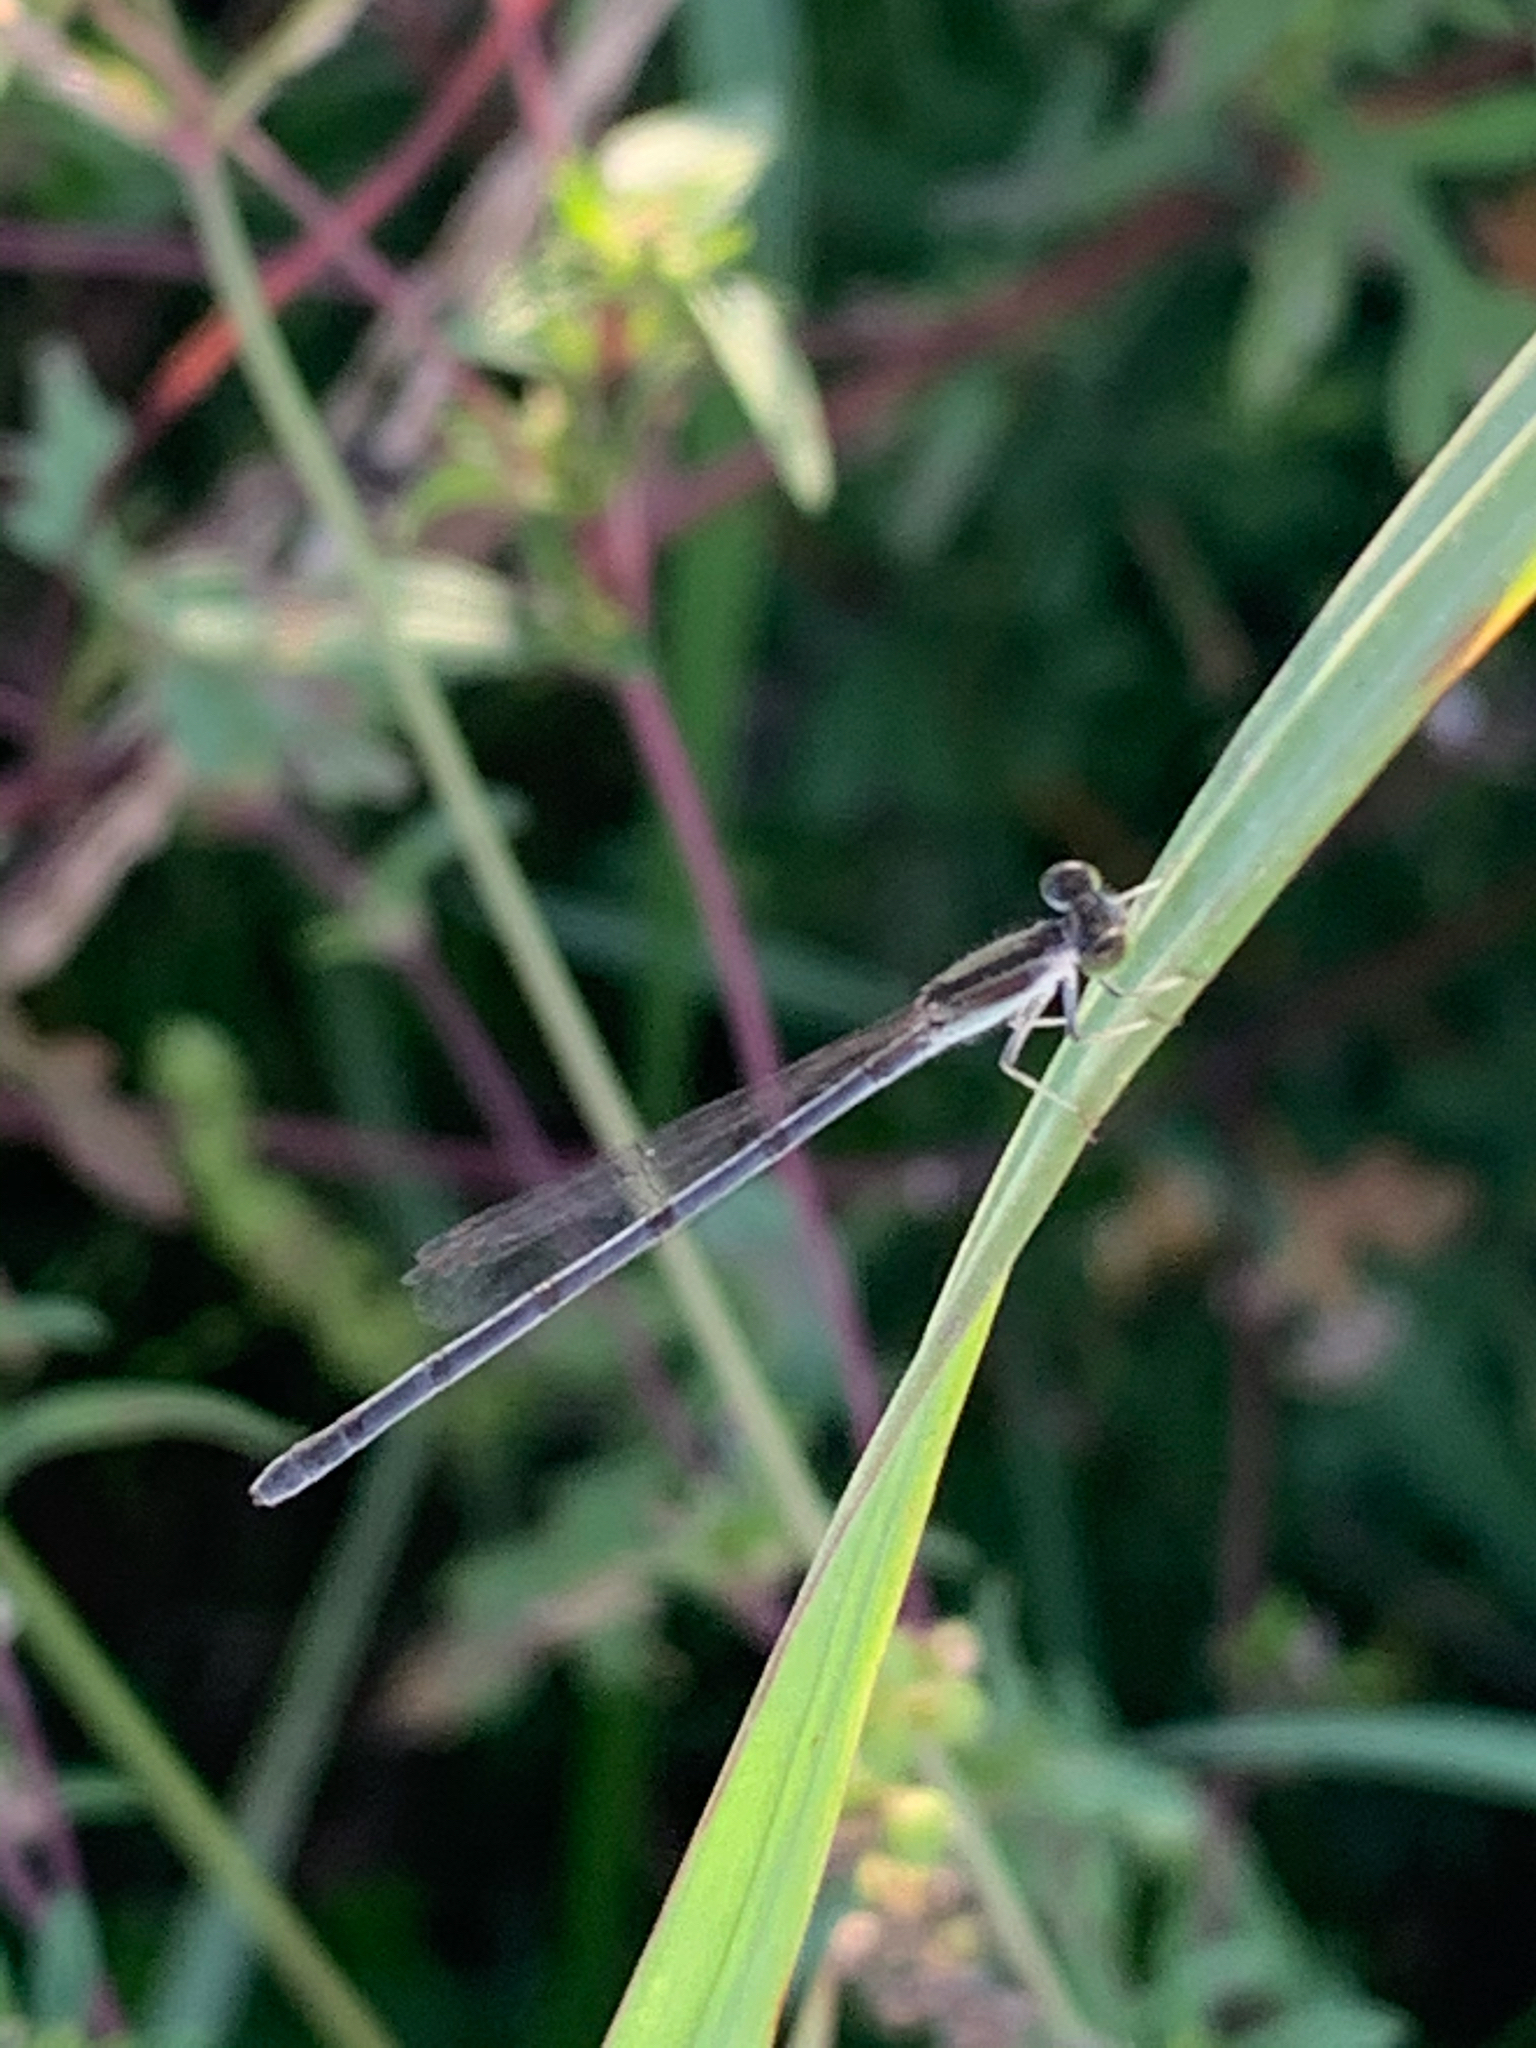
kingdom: Animalia
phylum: Arthropoda
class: Insecta
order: Odonata
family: Coenagrionidae
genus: Ischnura
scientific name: Ischnura hastata
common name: Citrine forktail
